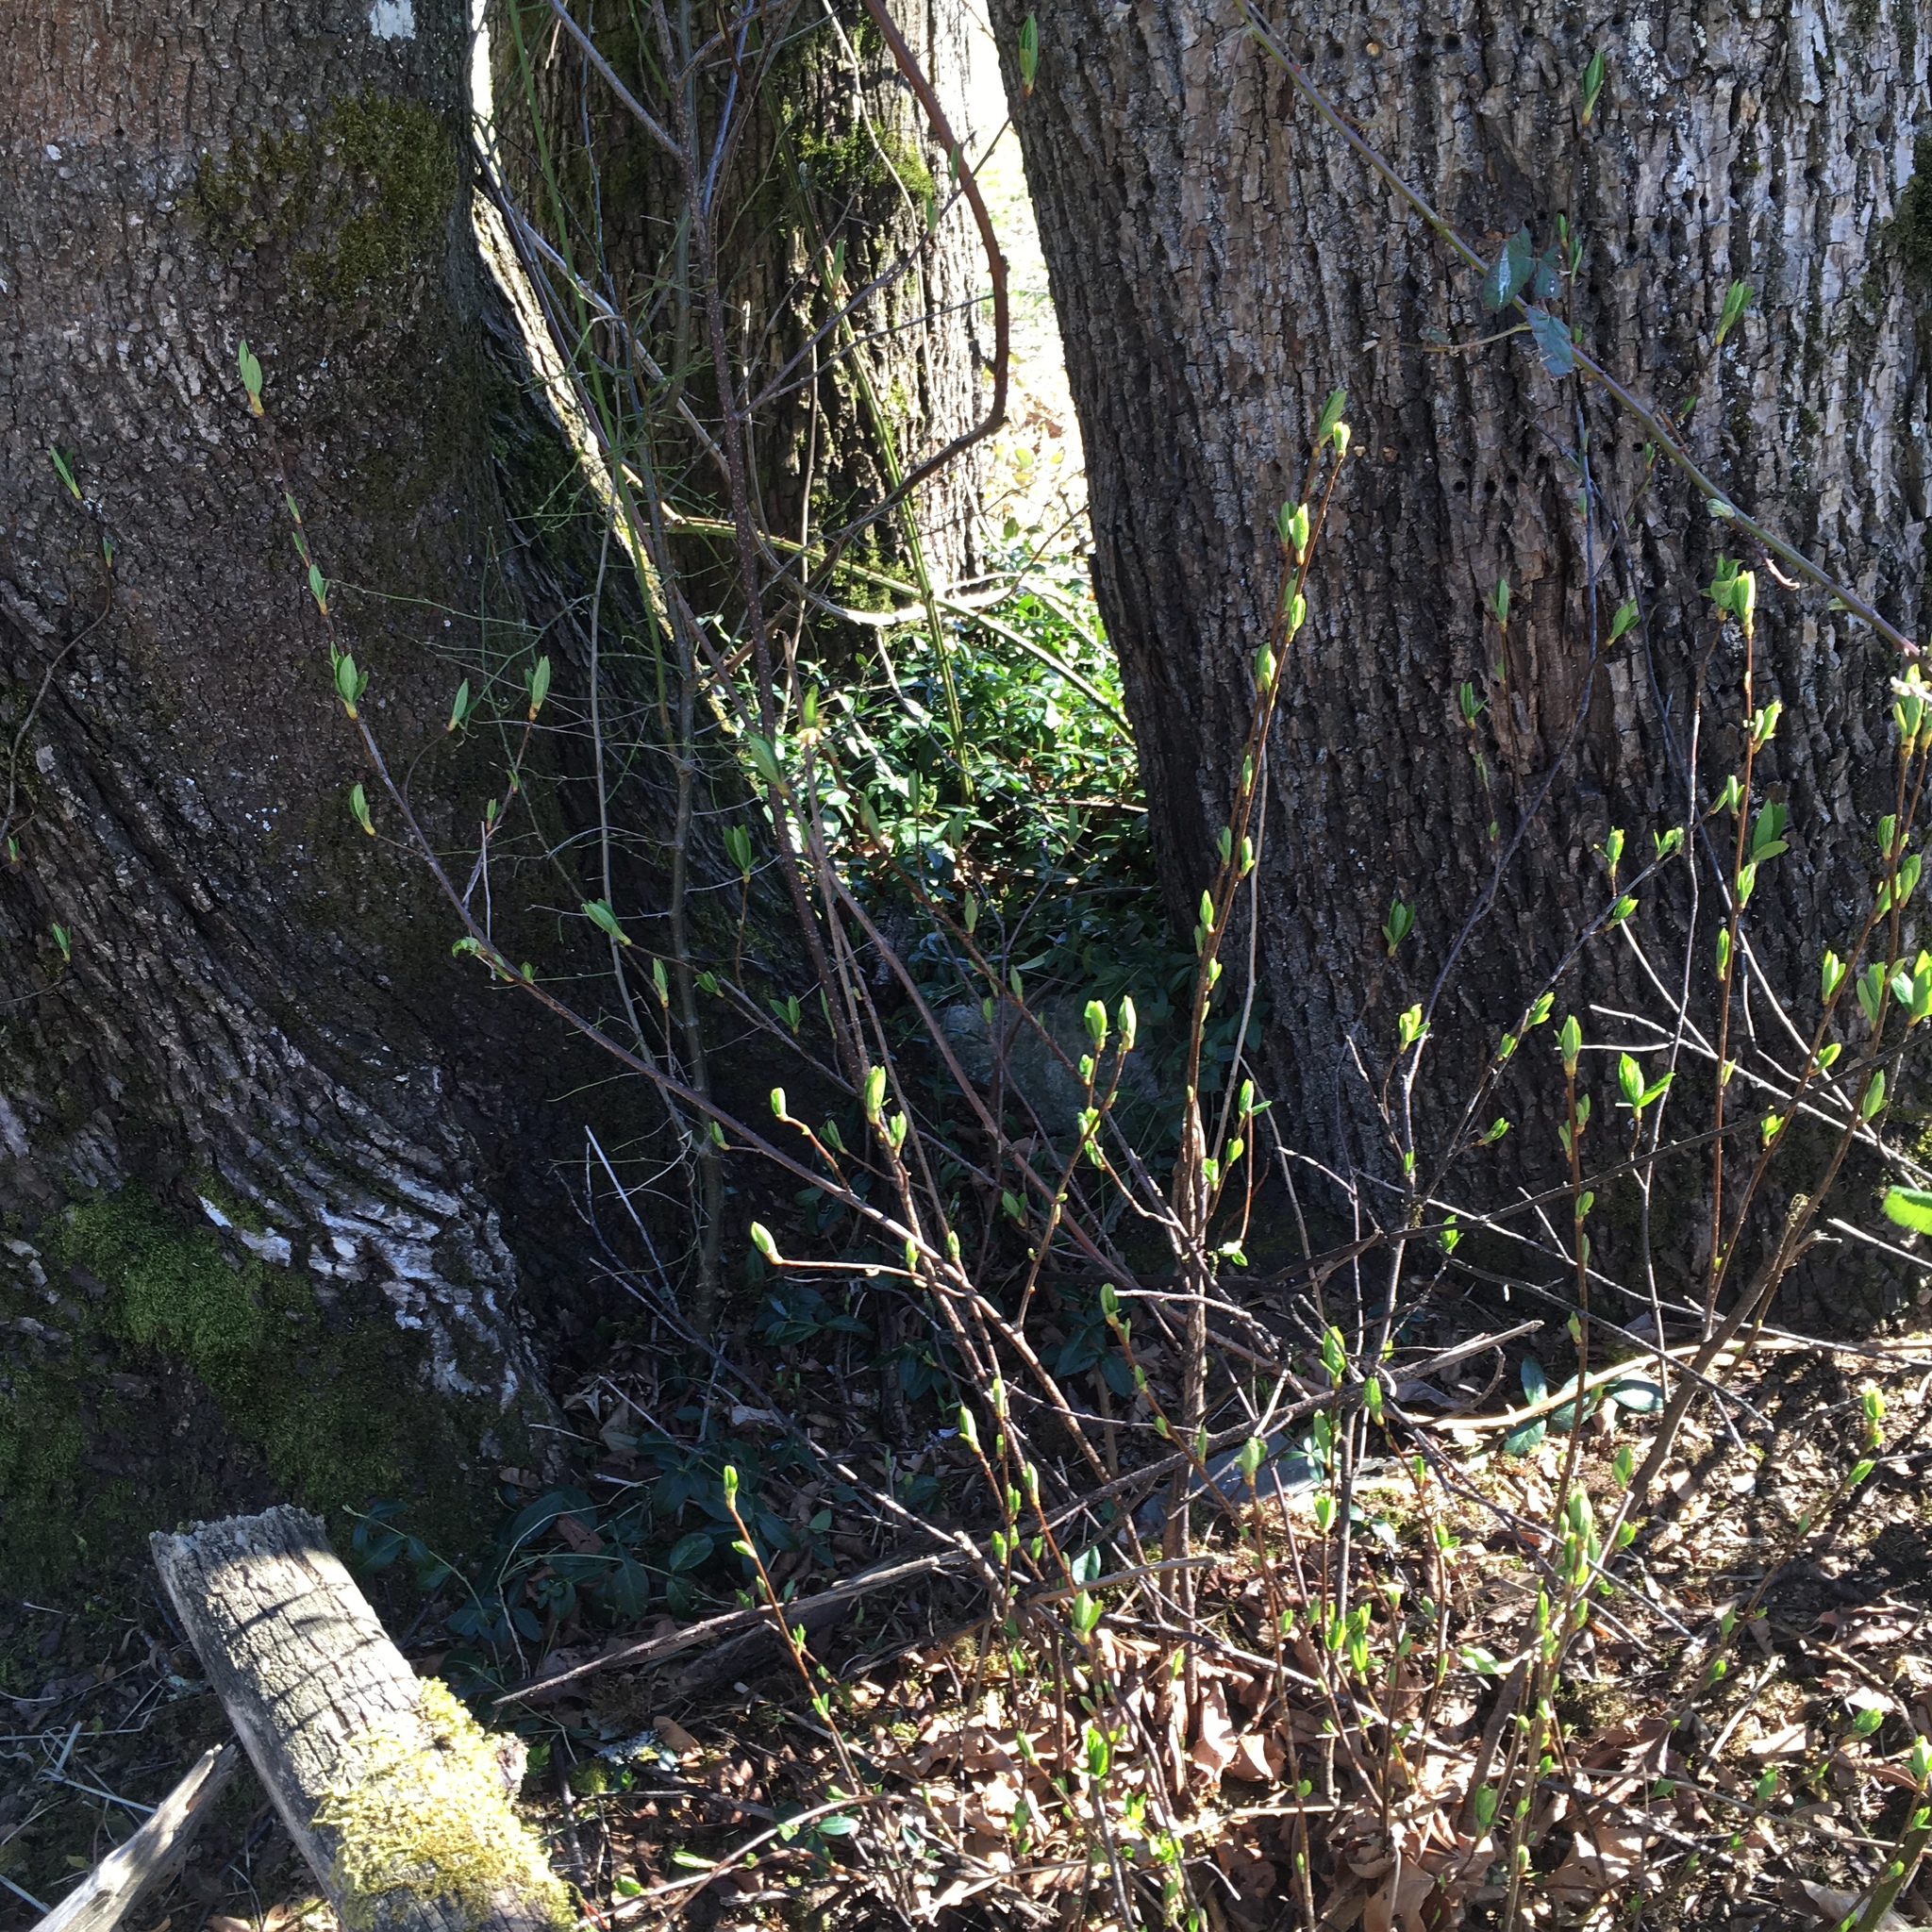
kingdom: Plantae
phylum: Tracheophyta
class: Magnoliopsida
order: Rosales
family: Rosaceae
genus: Oemleria
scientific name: Oemleria cerasiformis
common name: Osoberry
